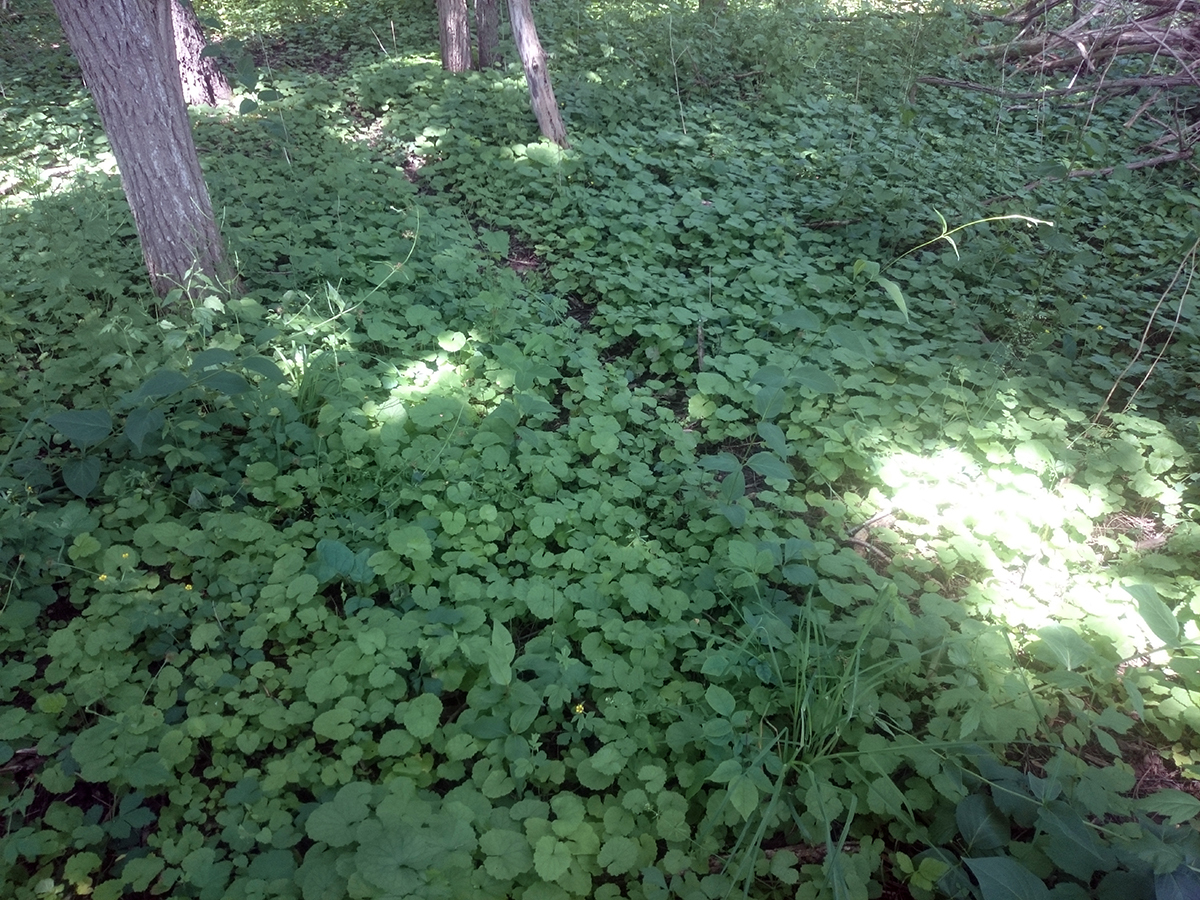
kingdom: Plantae
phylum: Tracheophyta
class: Magnoliopsida
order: Brassicales
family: Brassicaceae
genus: Alliaria
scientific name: Alliaria petiolata
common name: Garlic mustard
